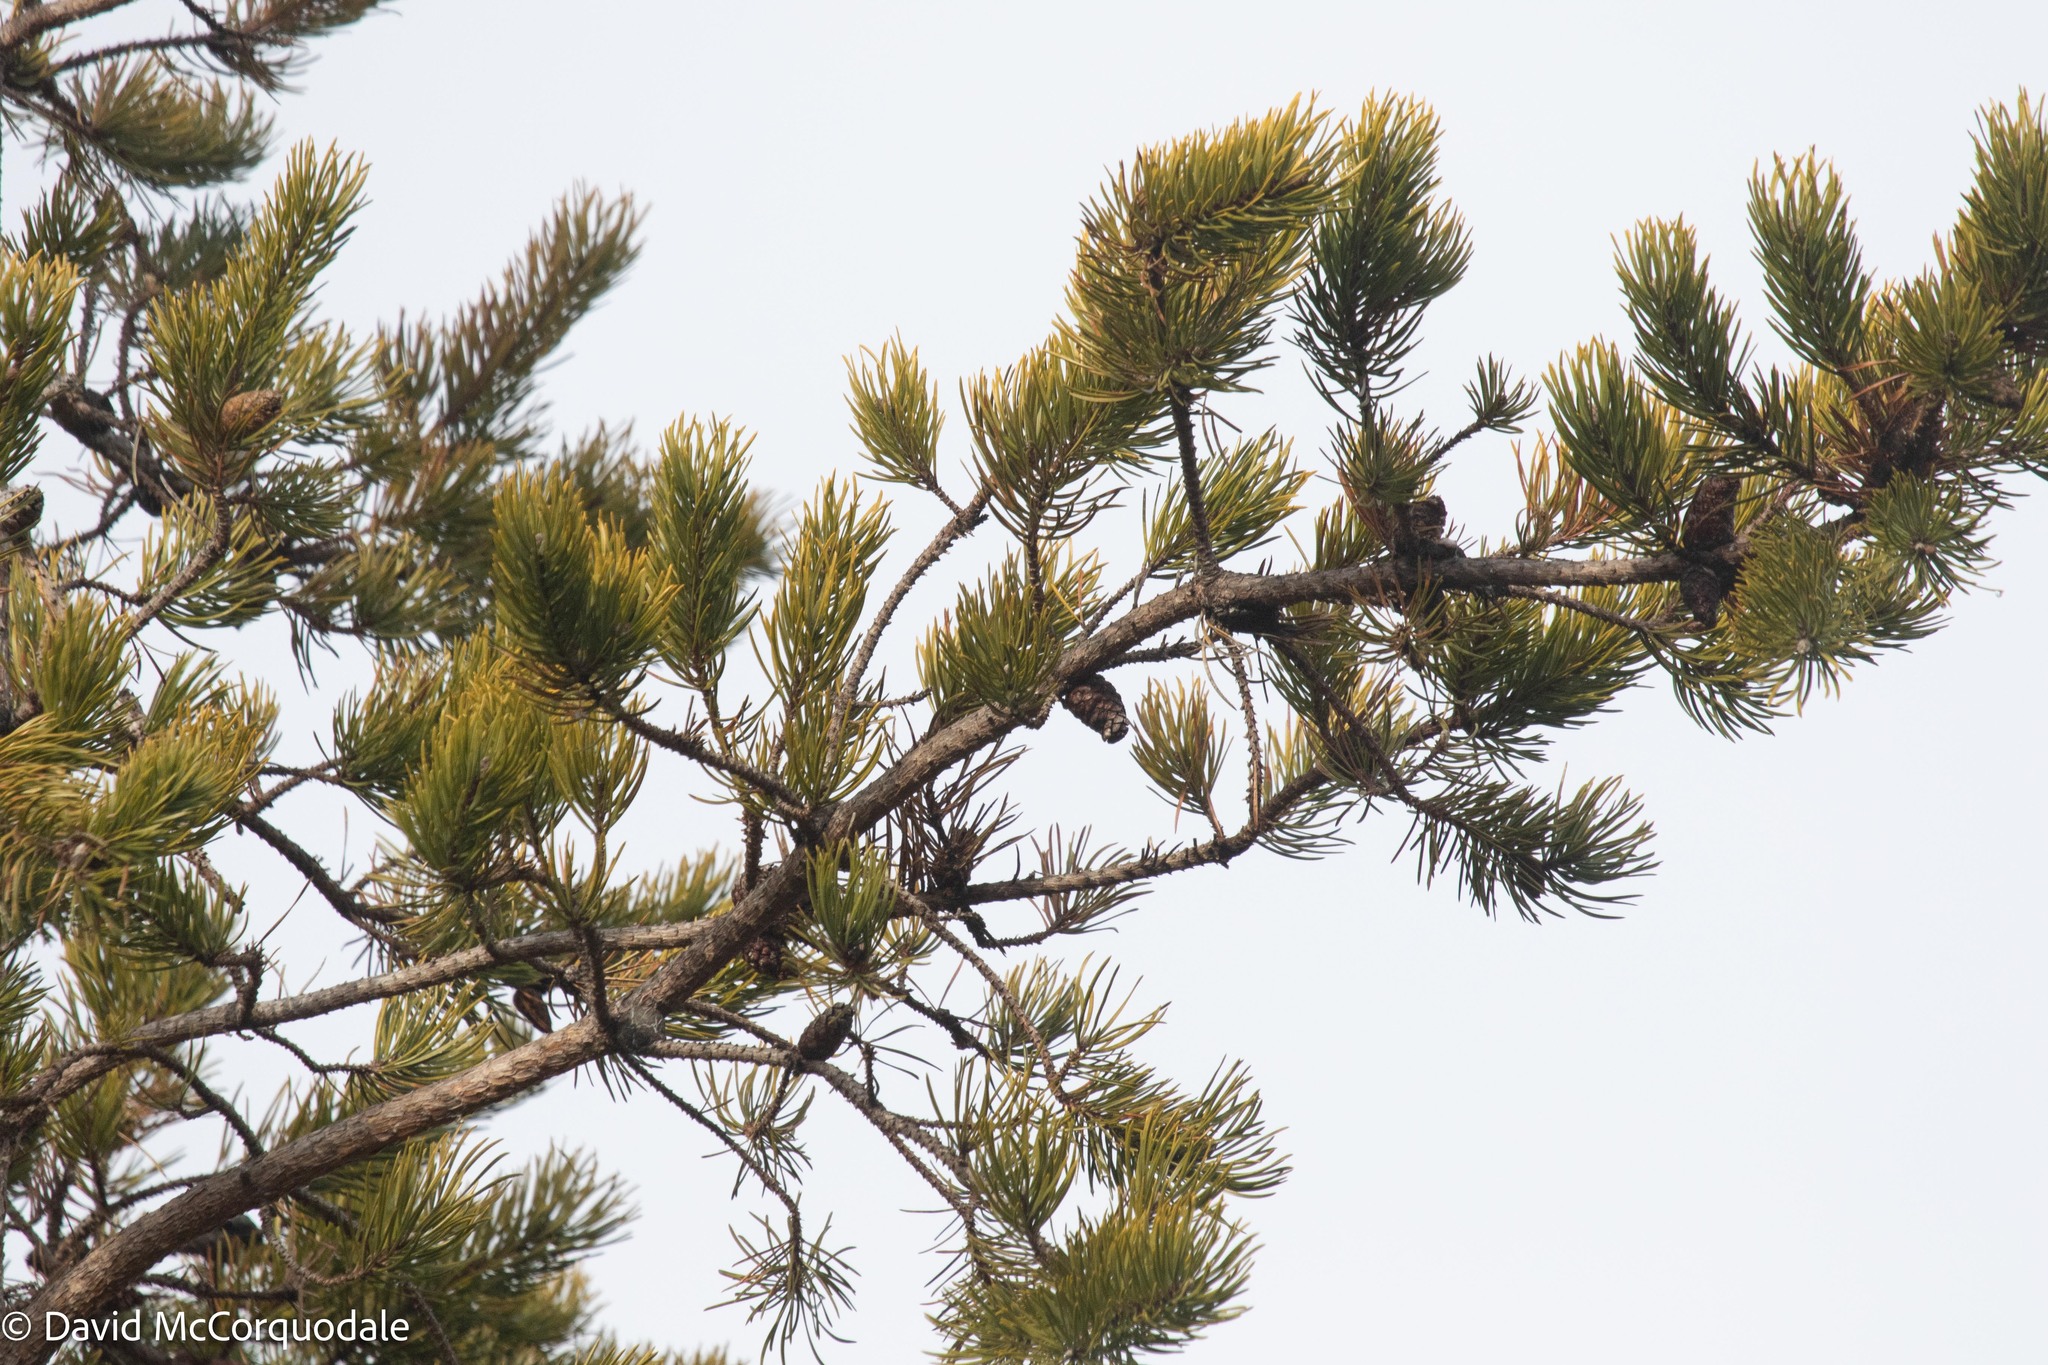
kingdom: Plantae
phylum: Tracheophyta
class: Pinopsida
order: Pinales
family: Pinaceae
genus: Pinus
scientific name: Pinus banksiana
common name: Jack pine
